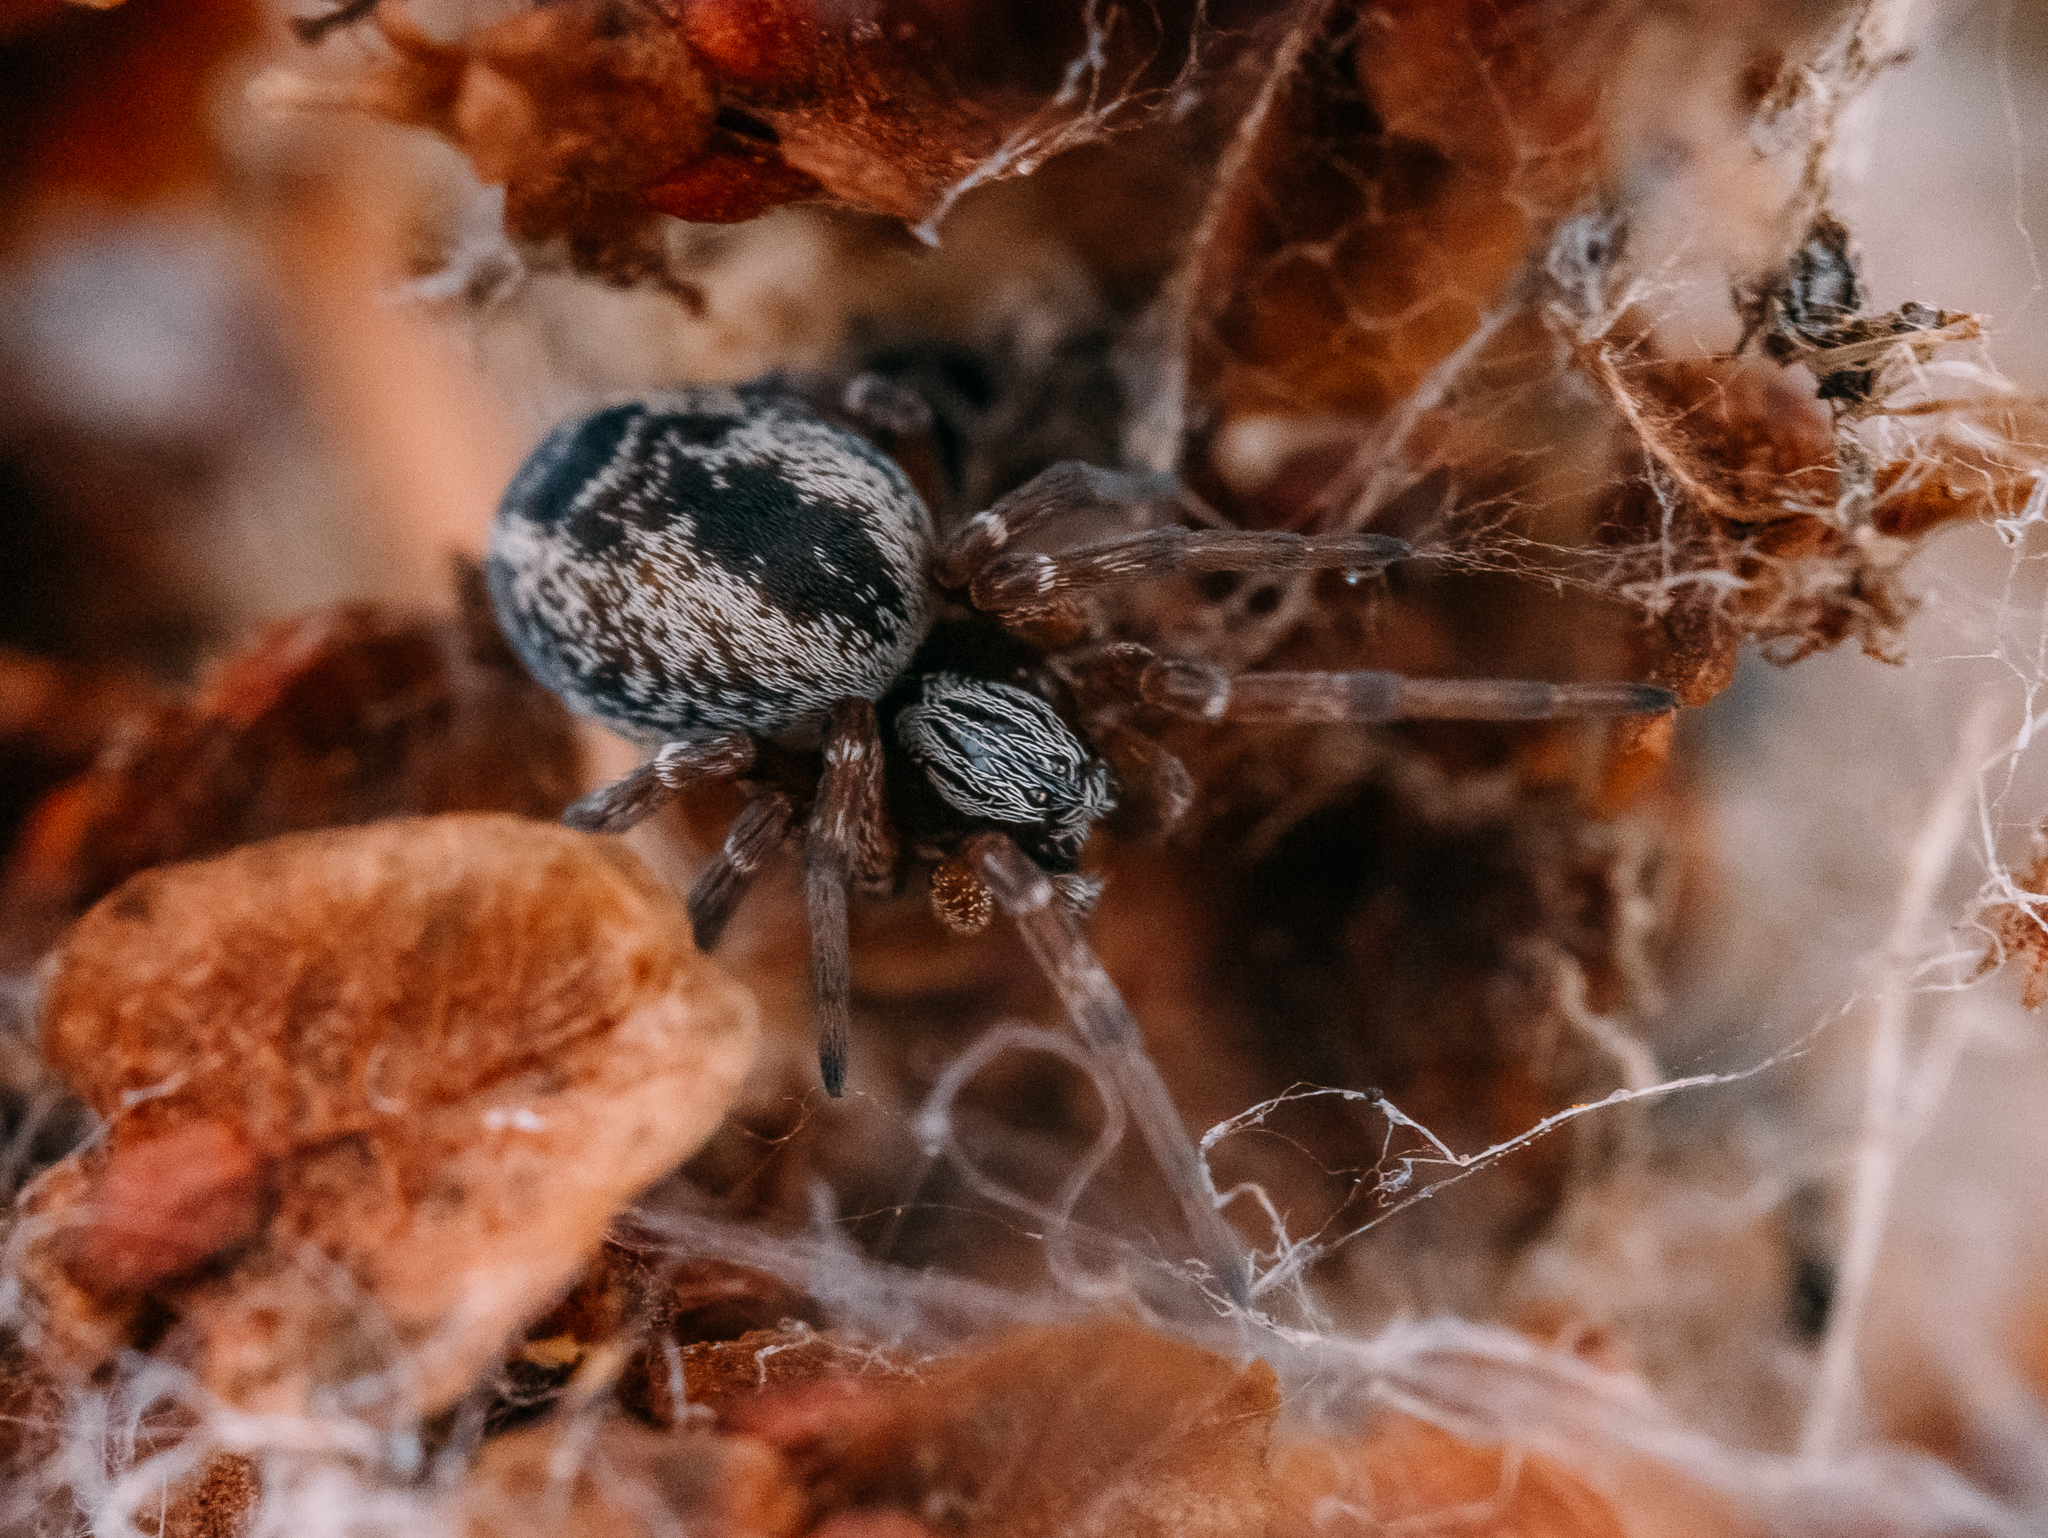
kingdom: Animalia
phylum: Arthropoda
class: Arachnida
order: Araneae
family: Dictynidae
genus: Dictyna
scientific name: Dictyna arundinacea
